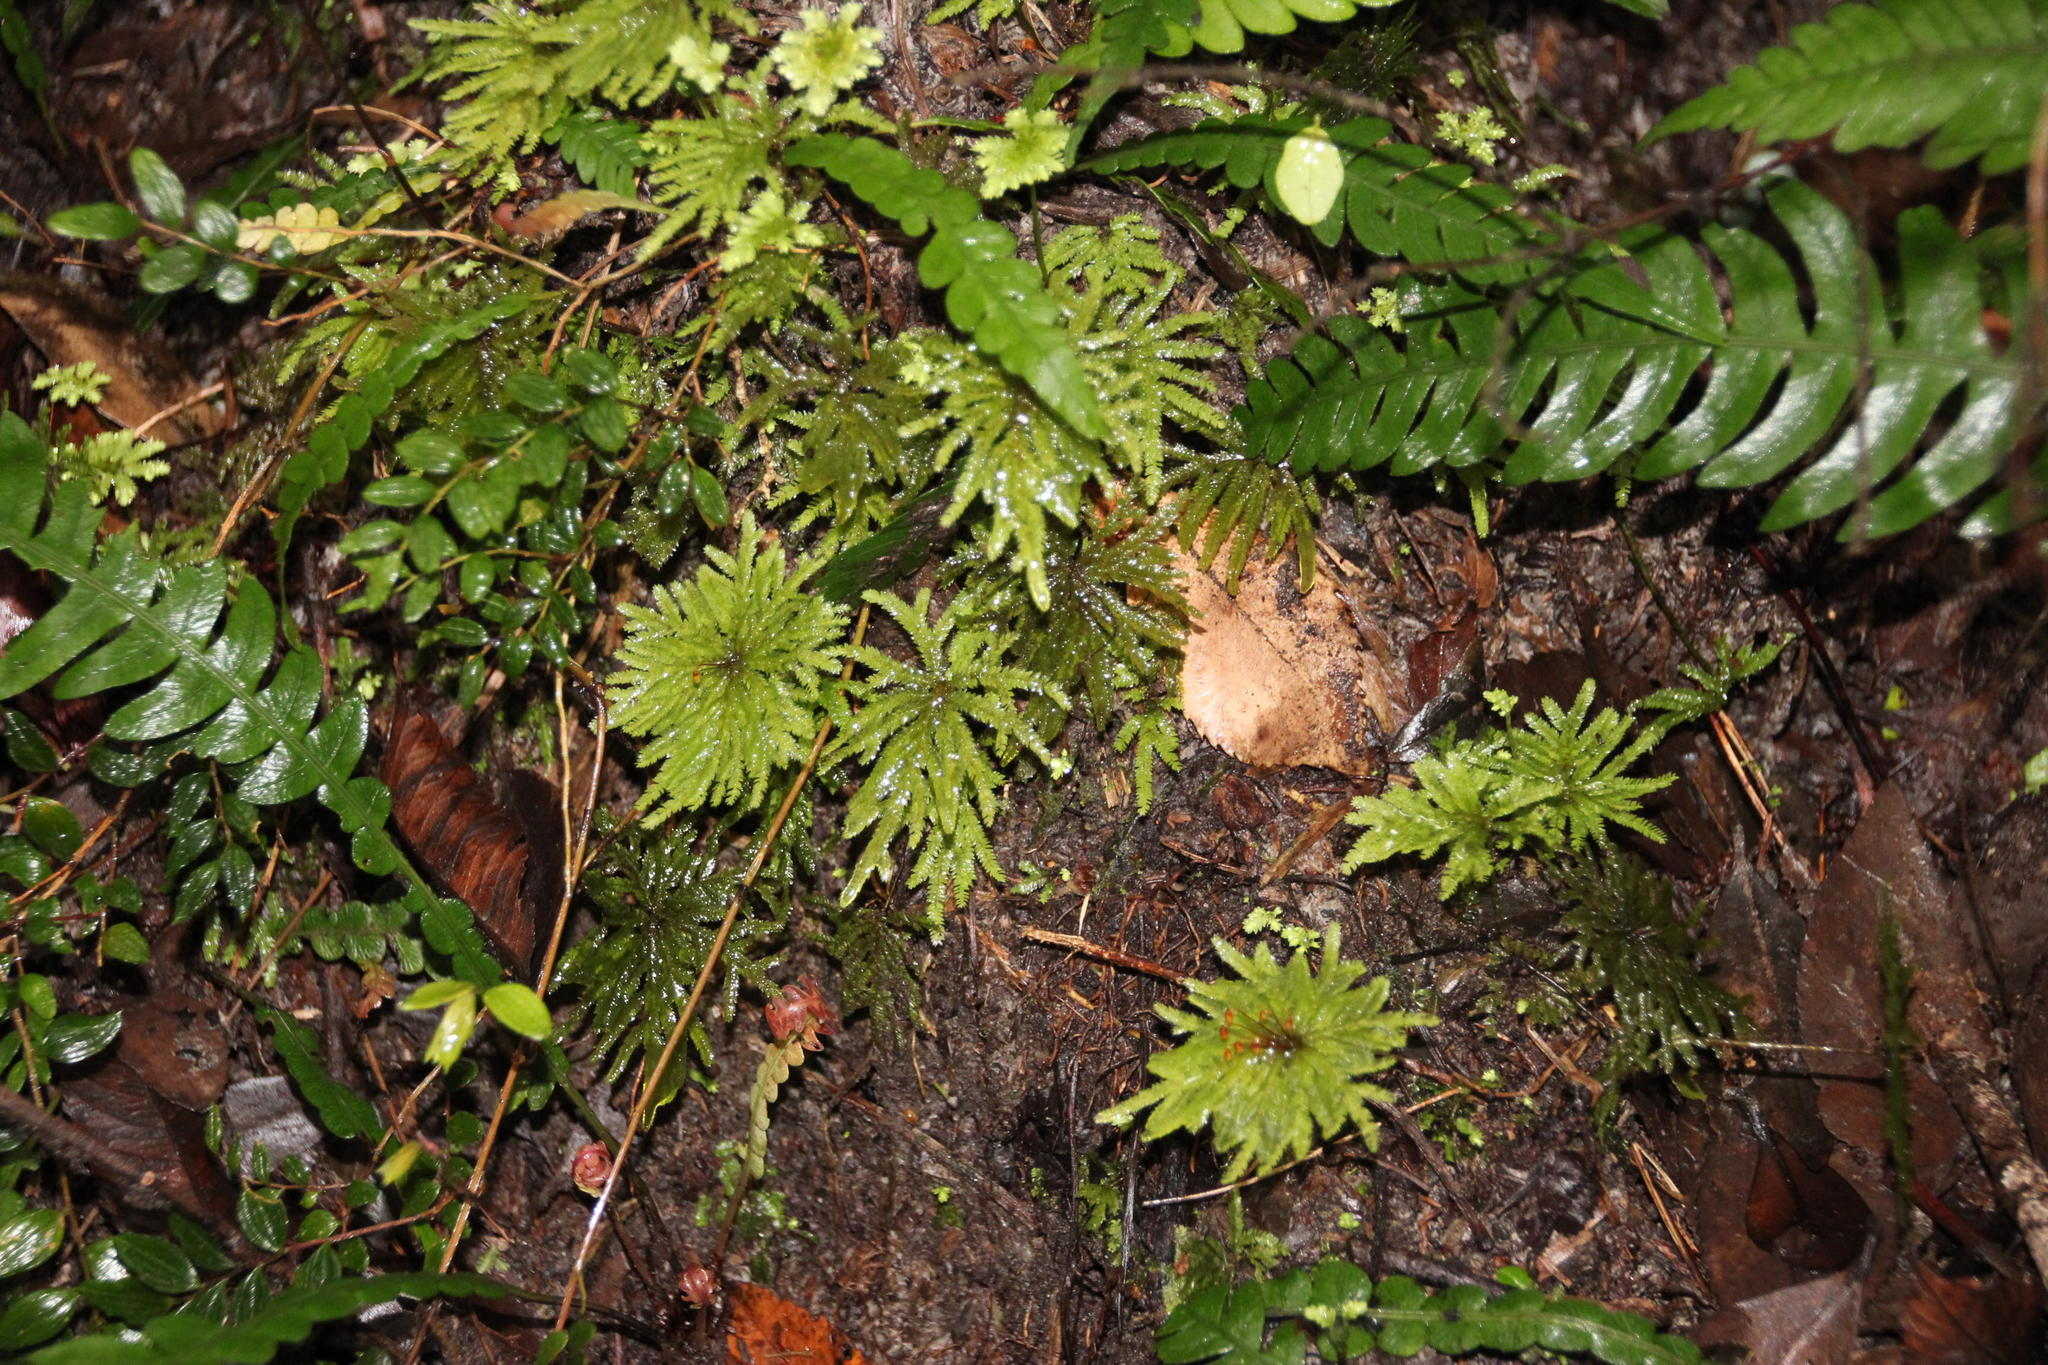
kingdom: Plantae
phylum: Bryophyta
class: Bryopsida
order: Hypopterygiales
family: Hypopterygiaceae
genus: Arbusculohypopterygium
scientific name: Arbusculohypopterygium arbuscula
